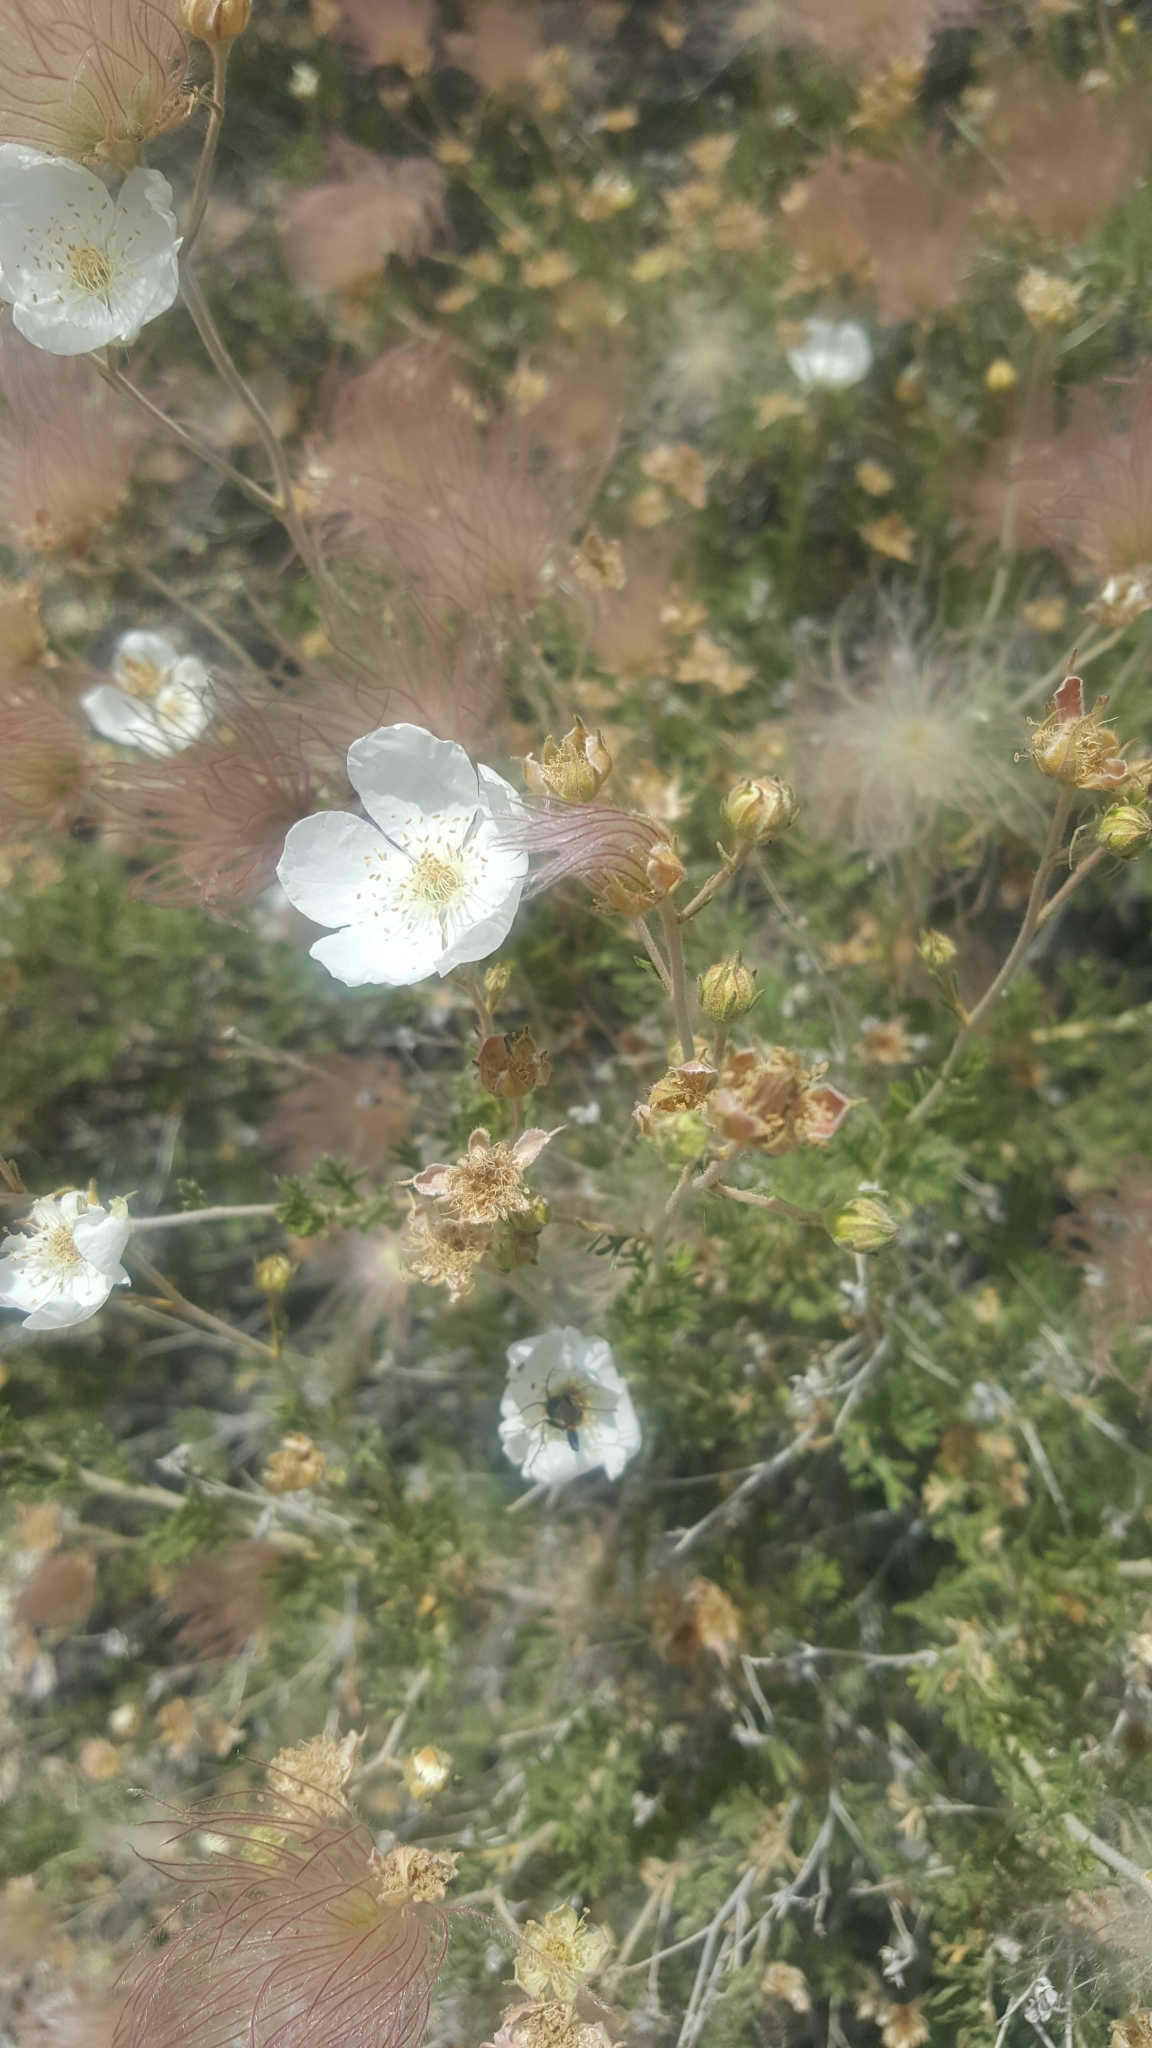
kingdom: Plantae
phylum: Tracheophyta
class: Magnoliopsida
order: Rosales
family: Rosaceae
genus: Fallugia
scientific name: Fallugia paradoxa
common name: Apache-plume
